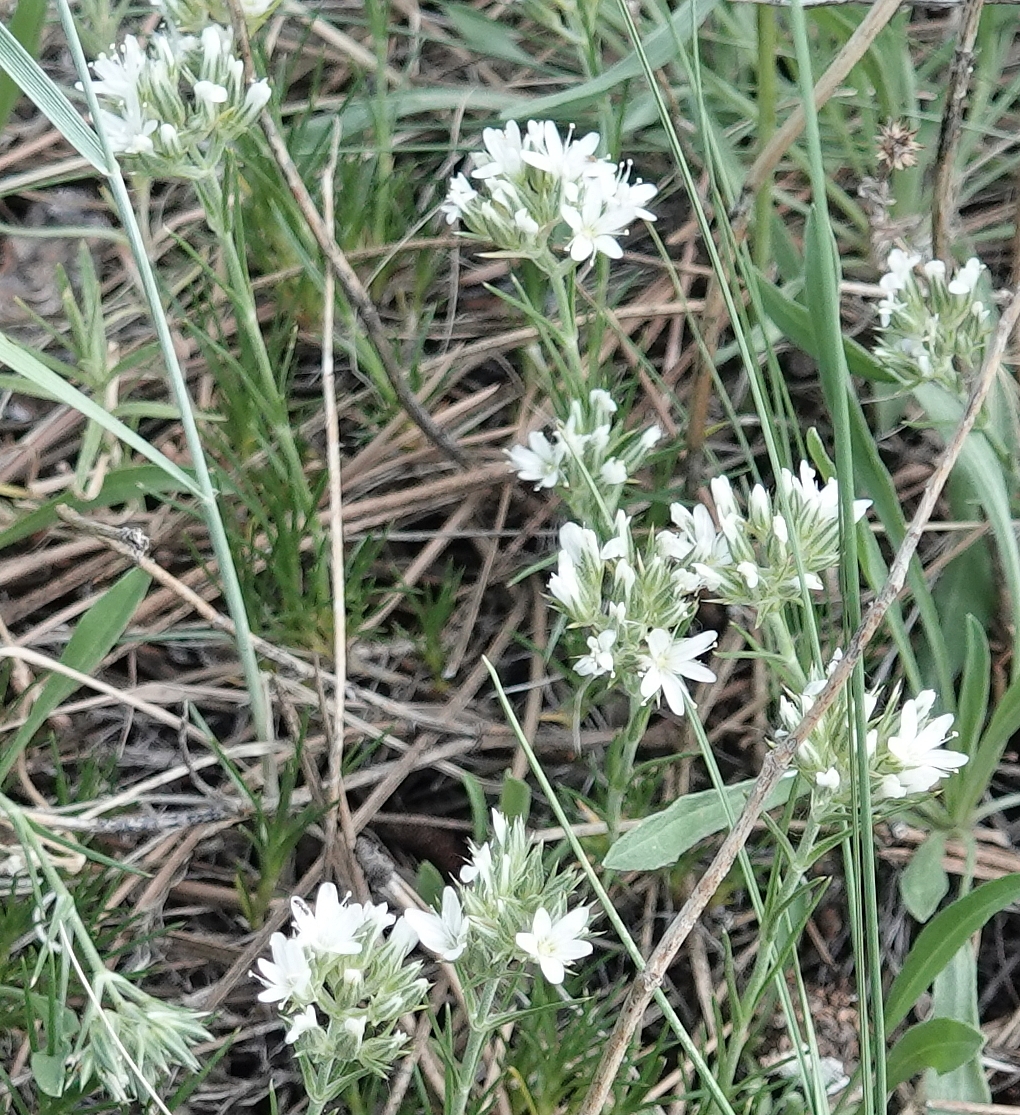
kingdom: Plantae
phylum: Tracheophyta
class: Magnoliopsida
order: Caryophyllales
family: Caryophyllaceae
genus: Eremogone
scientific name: Eremogone hookeri
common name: Hooker's sandwort
